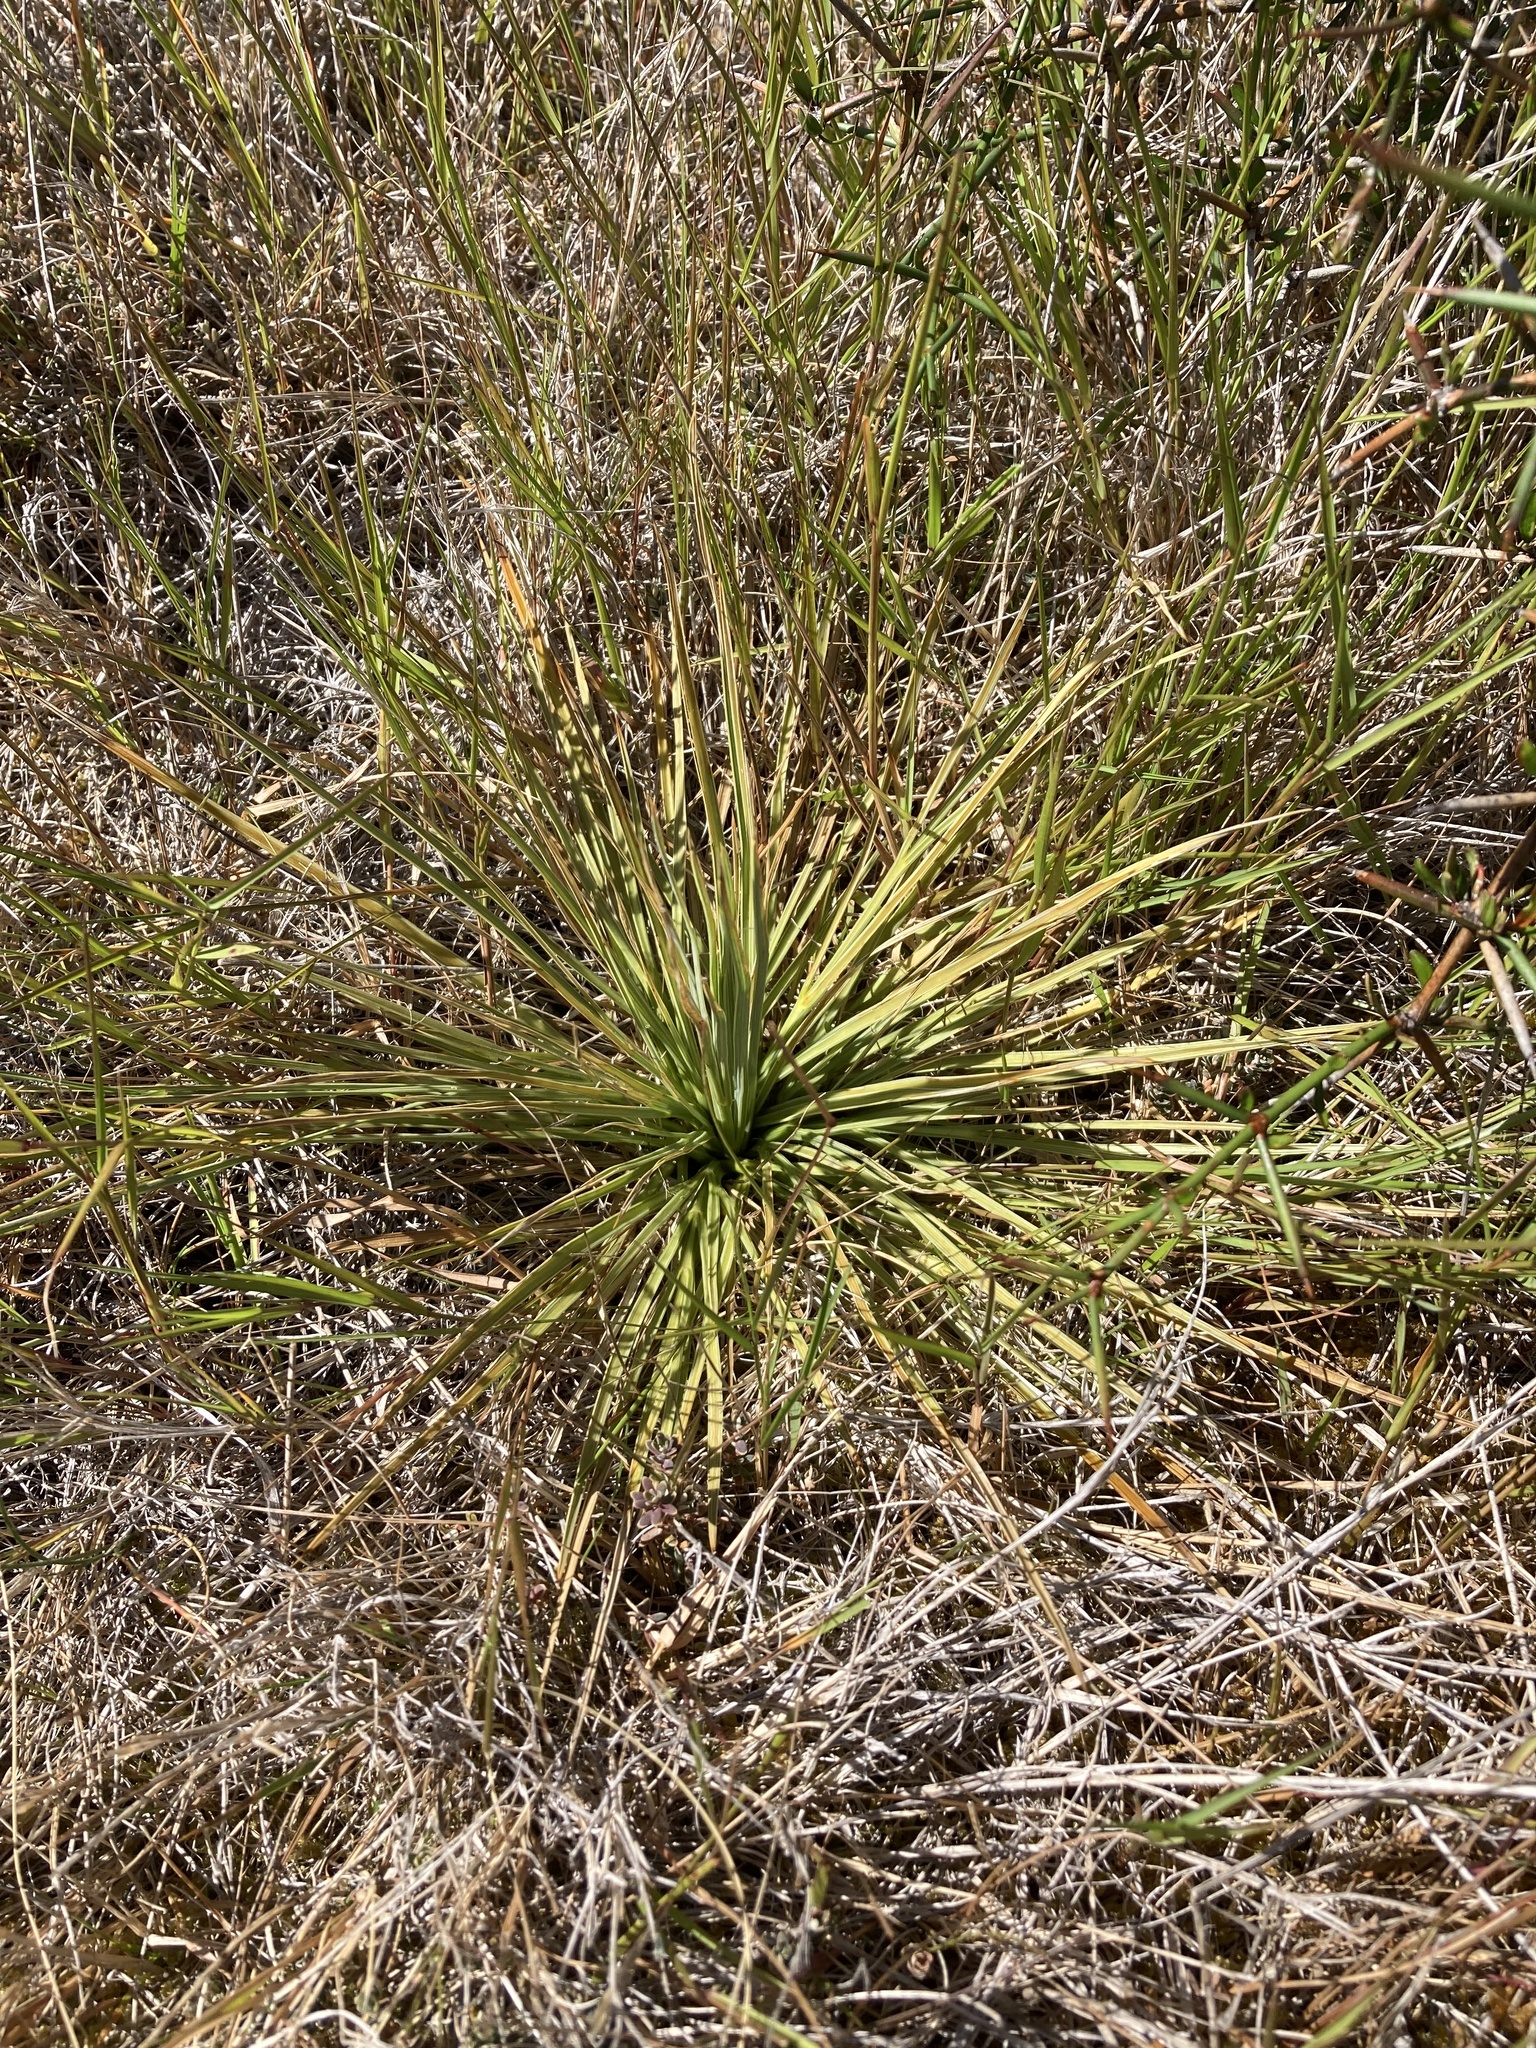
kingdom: Plantae
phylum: Tracheophyta
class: Magnoliopsida
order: Apiales
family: Apiaceae
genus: Aciphylla
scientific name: Aciphylla subflabellata
